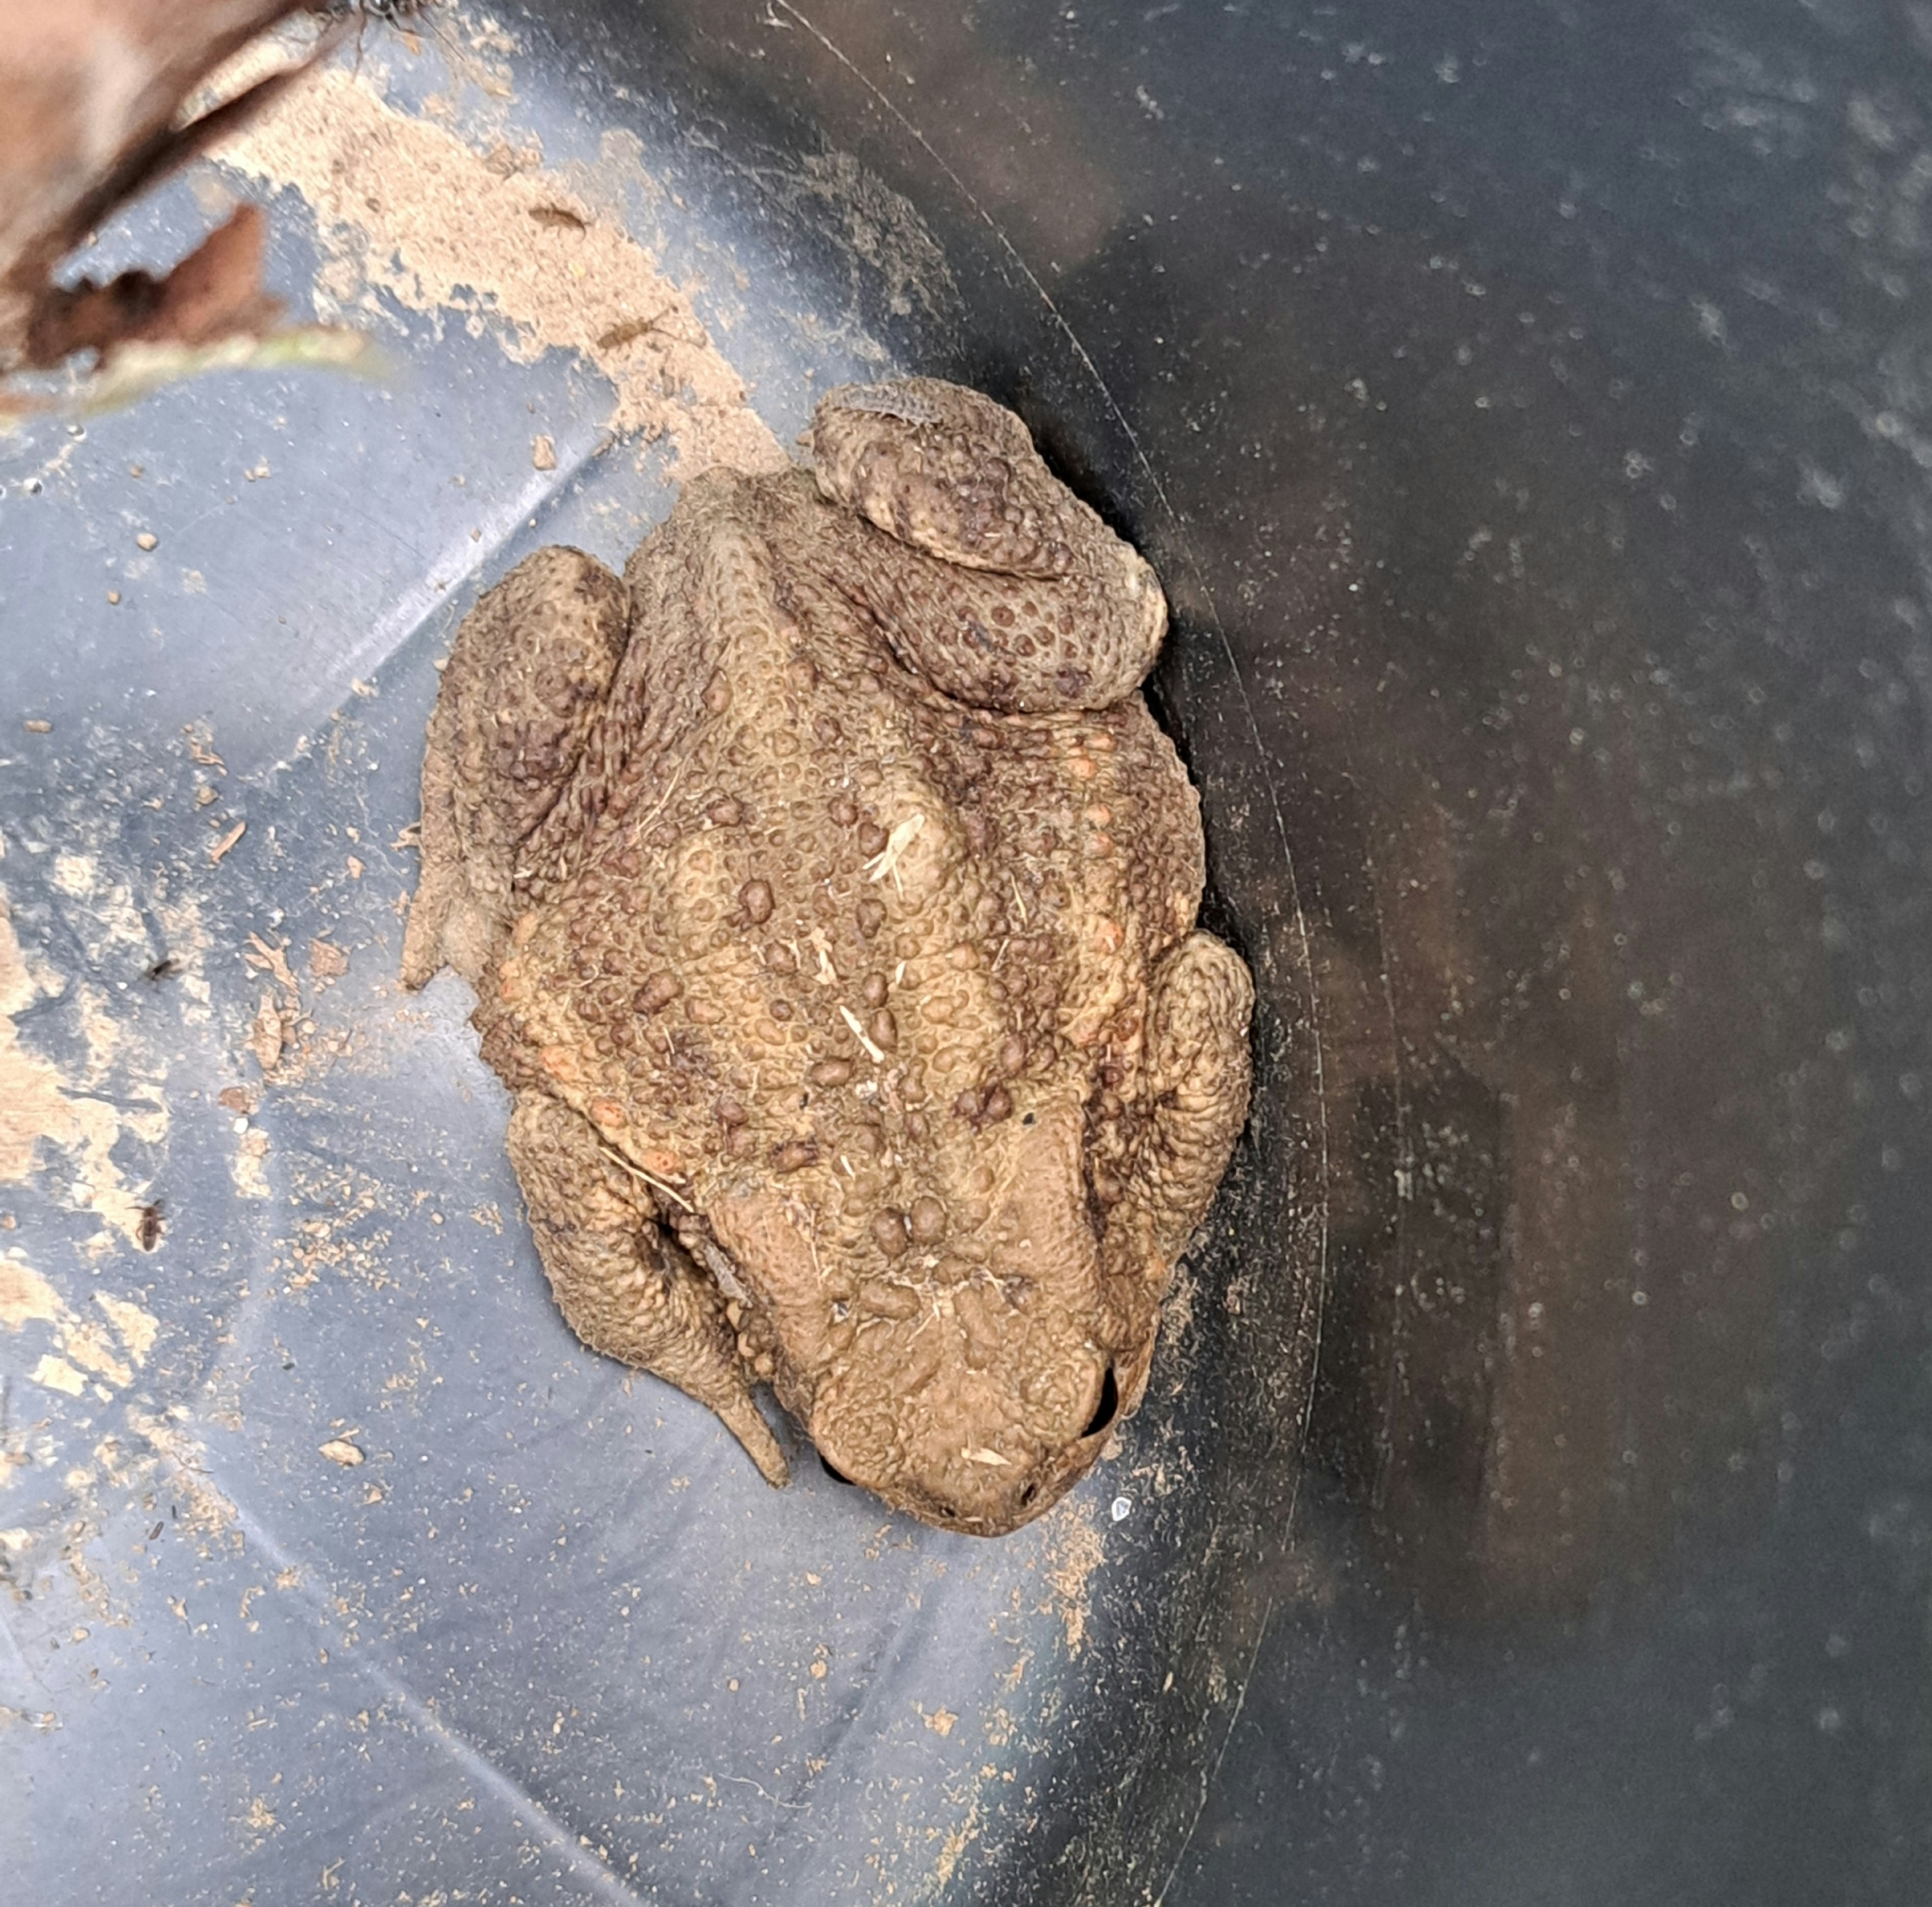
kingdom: Animalia
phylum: Chordata
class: Amphibia
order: Anura
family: Bufonidae
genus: Bufo
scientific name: Bufo bufo
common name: Common toad
